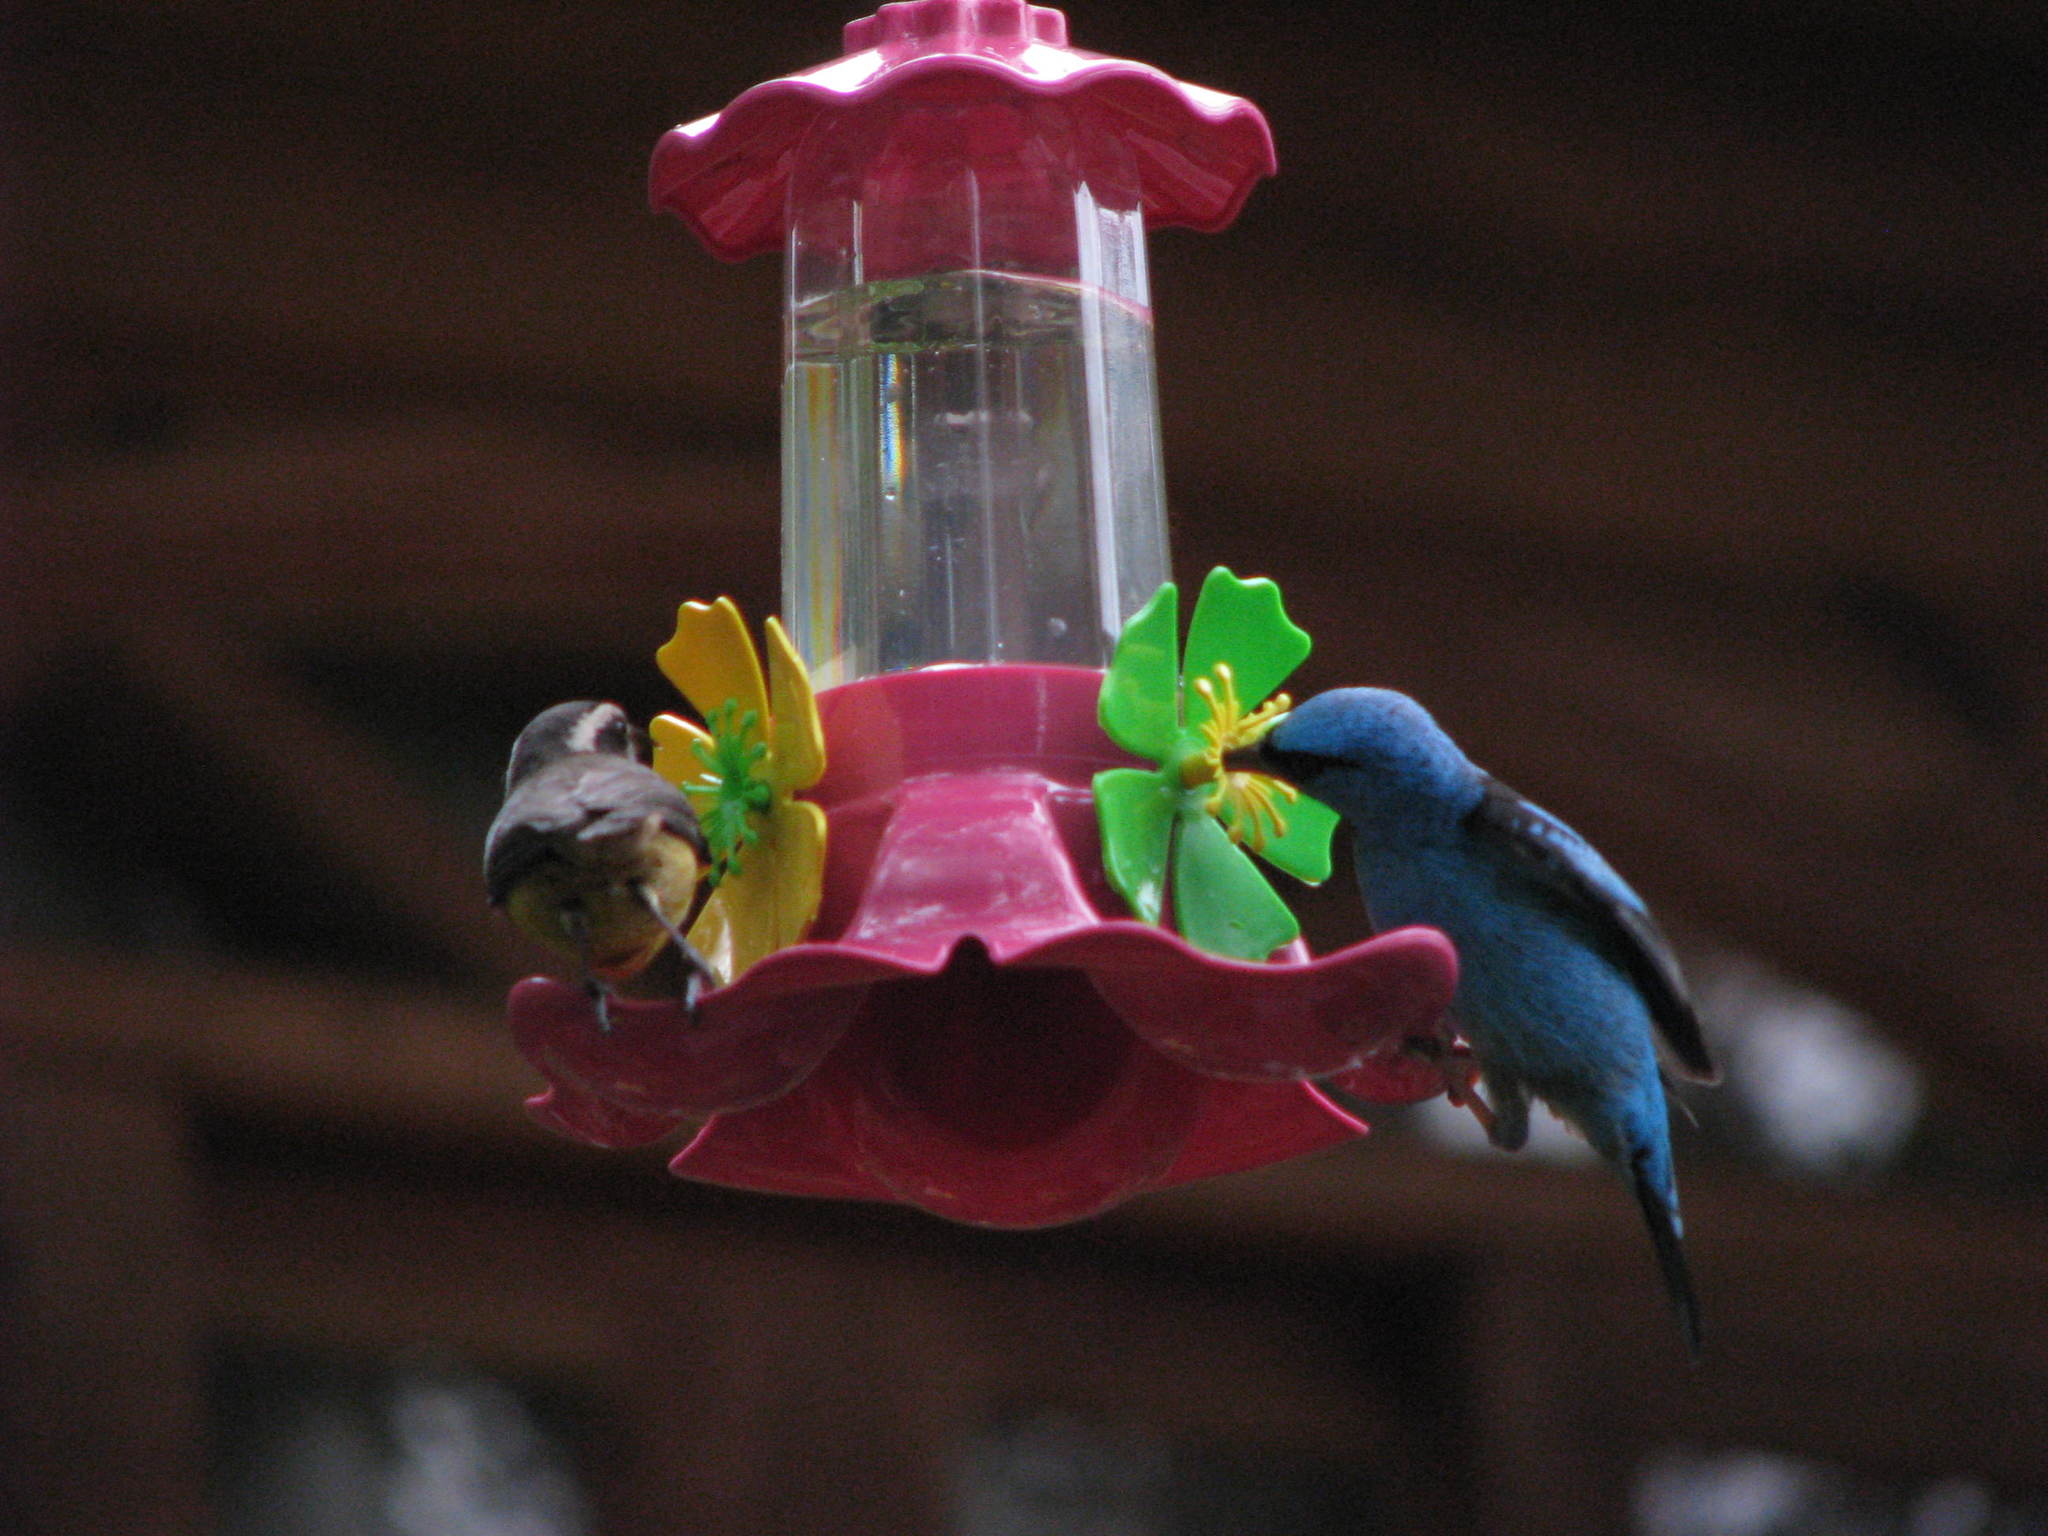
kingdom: Animalia
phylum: Chordata
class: Aves
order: Passeriformes
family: Thraupidae
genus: Dacnis
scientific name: Dacnis cayana
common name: Blue dacnis
